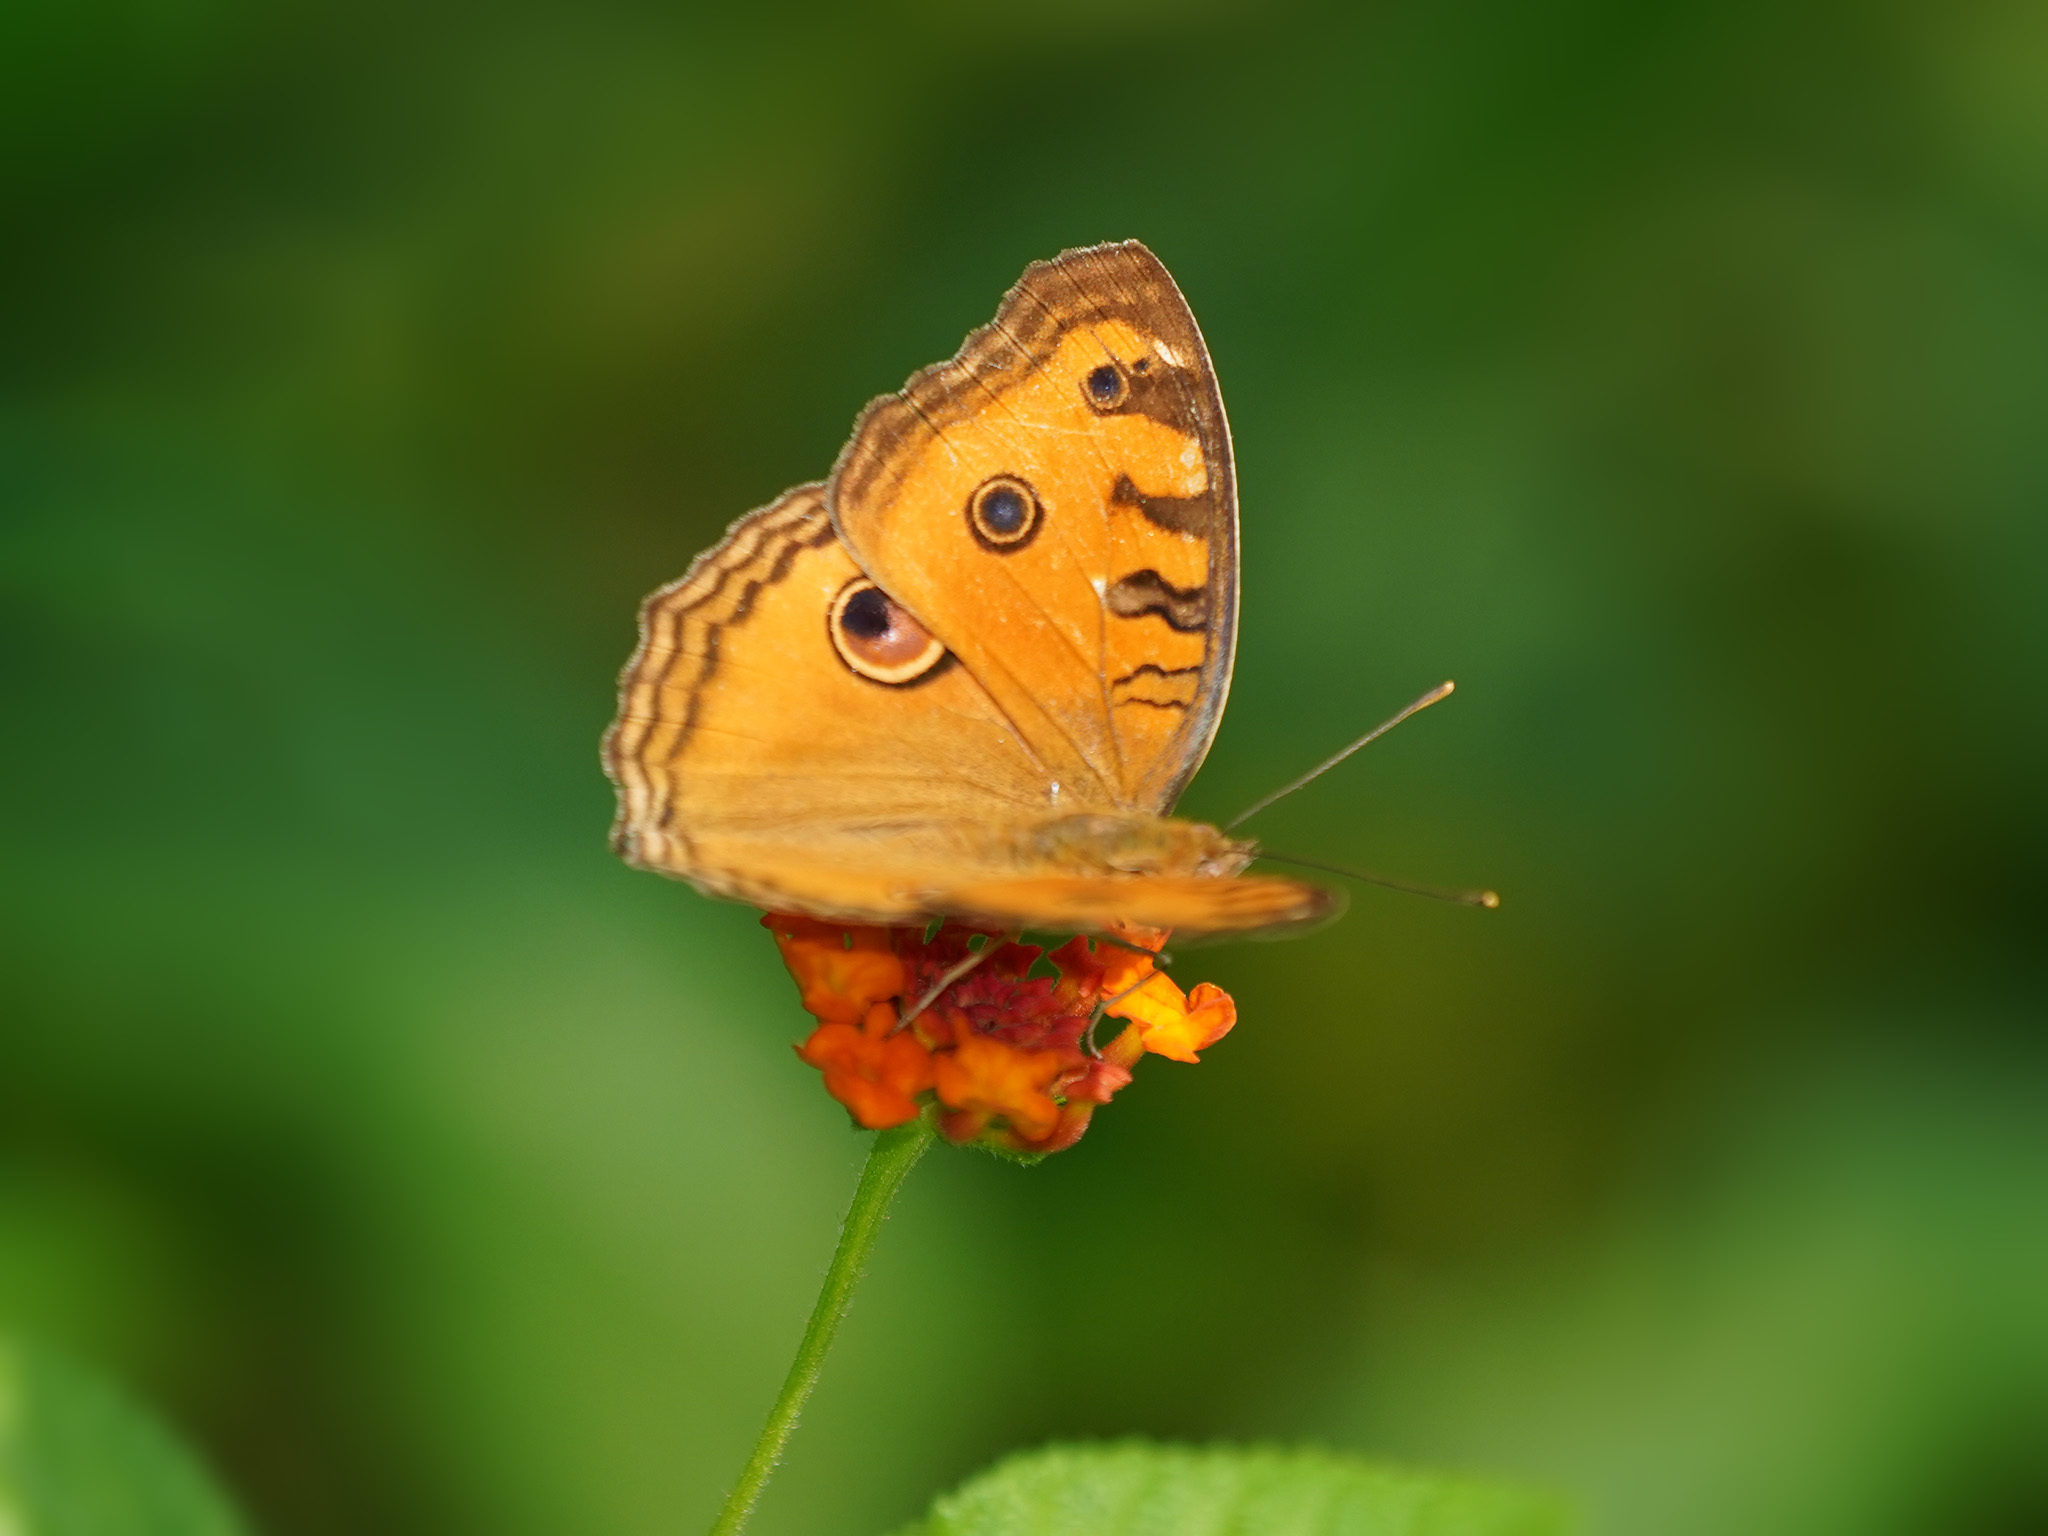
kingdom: Animalia
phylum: Arthropoda
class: Insecta
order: Lepidoptera
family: Nymphalidae
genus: Junonia
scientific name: Junonia almana
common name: Peacock pansy
